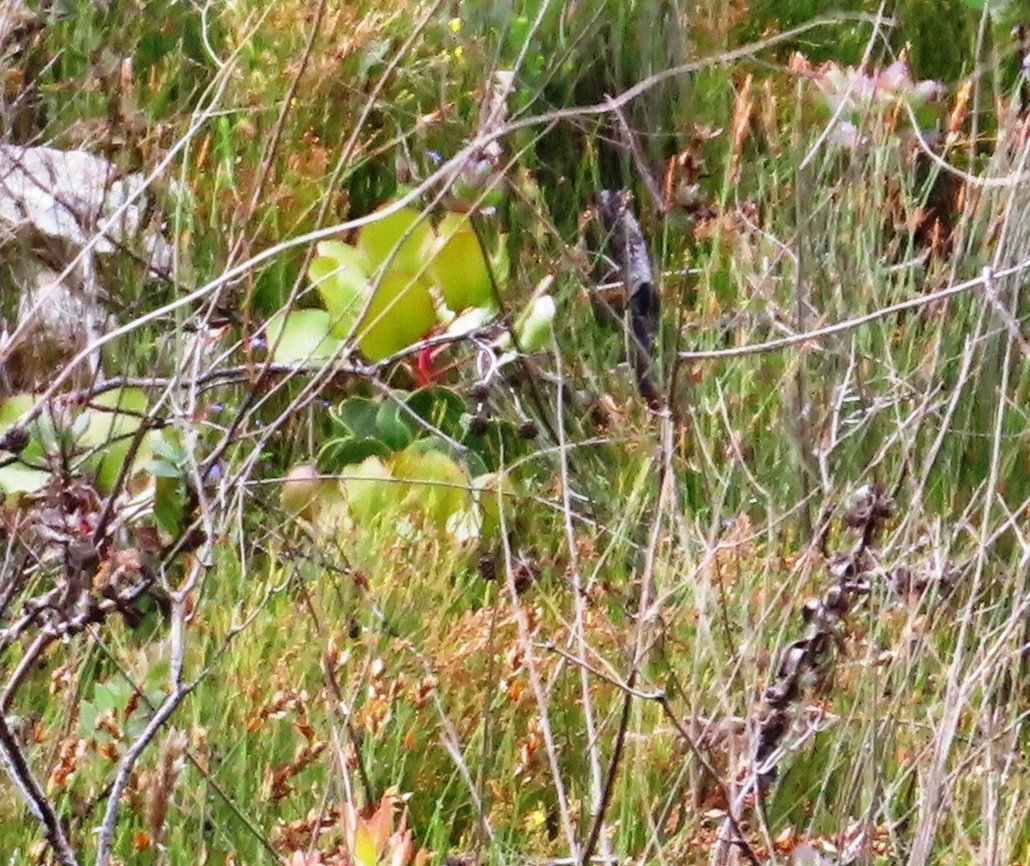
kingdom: Plantae
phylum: Tracheophyta
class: Magnoliopsida
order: Proteales
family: Proteaceae
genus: Protea
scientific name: Protea cynaroides
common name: King protea
